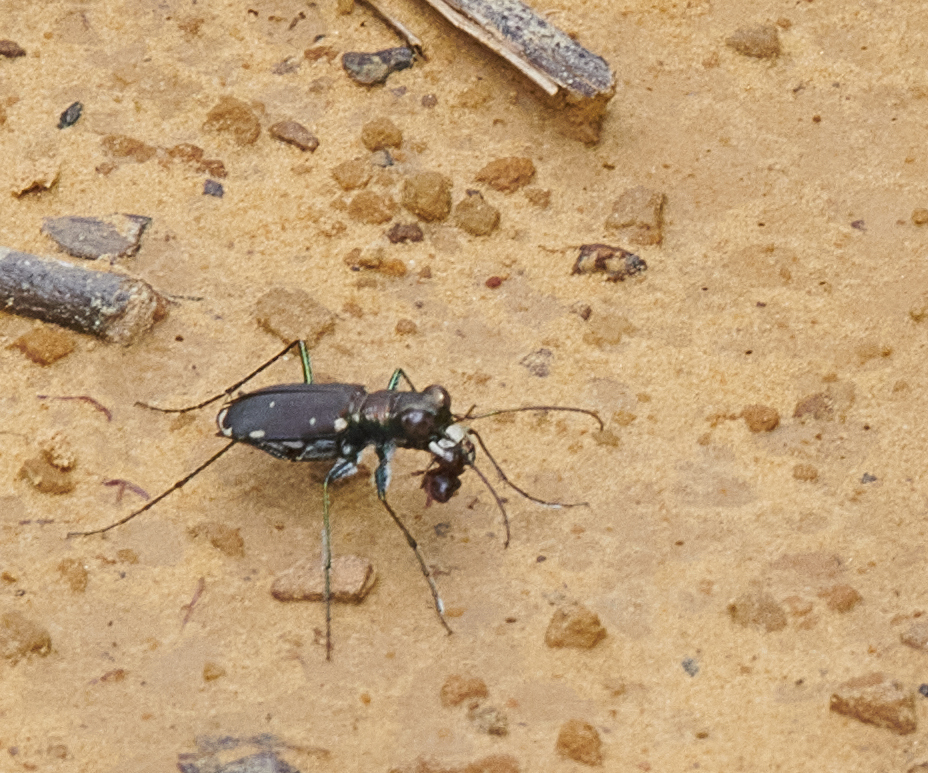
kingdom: Animalia
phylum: Arthropoda
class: Insecta
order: Coleoptera
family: Carabidae
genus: Cicindela
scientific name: Cicindela rufiventris
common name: Eastern red-bellied tiger beetle
